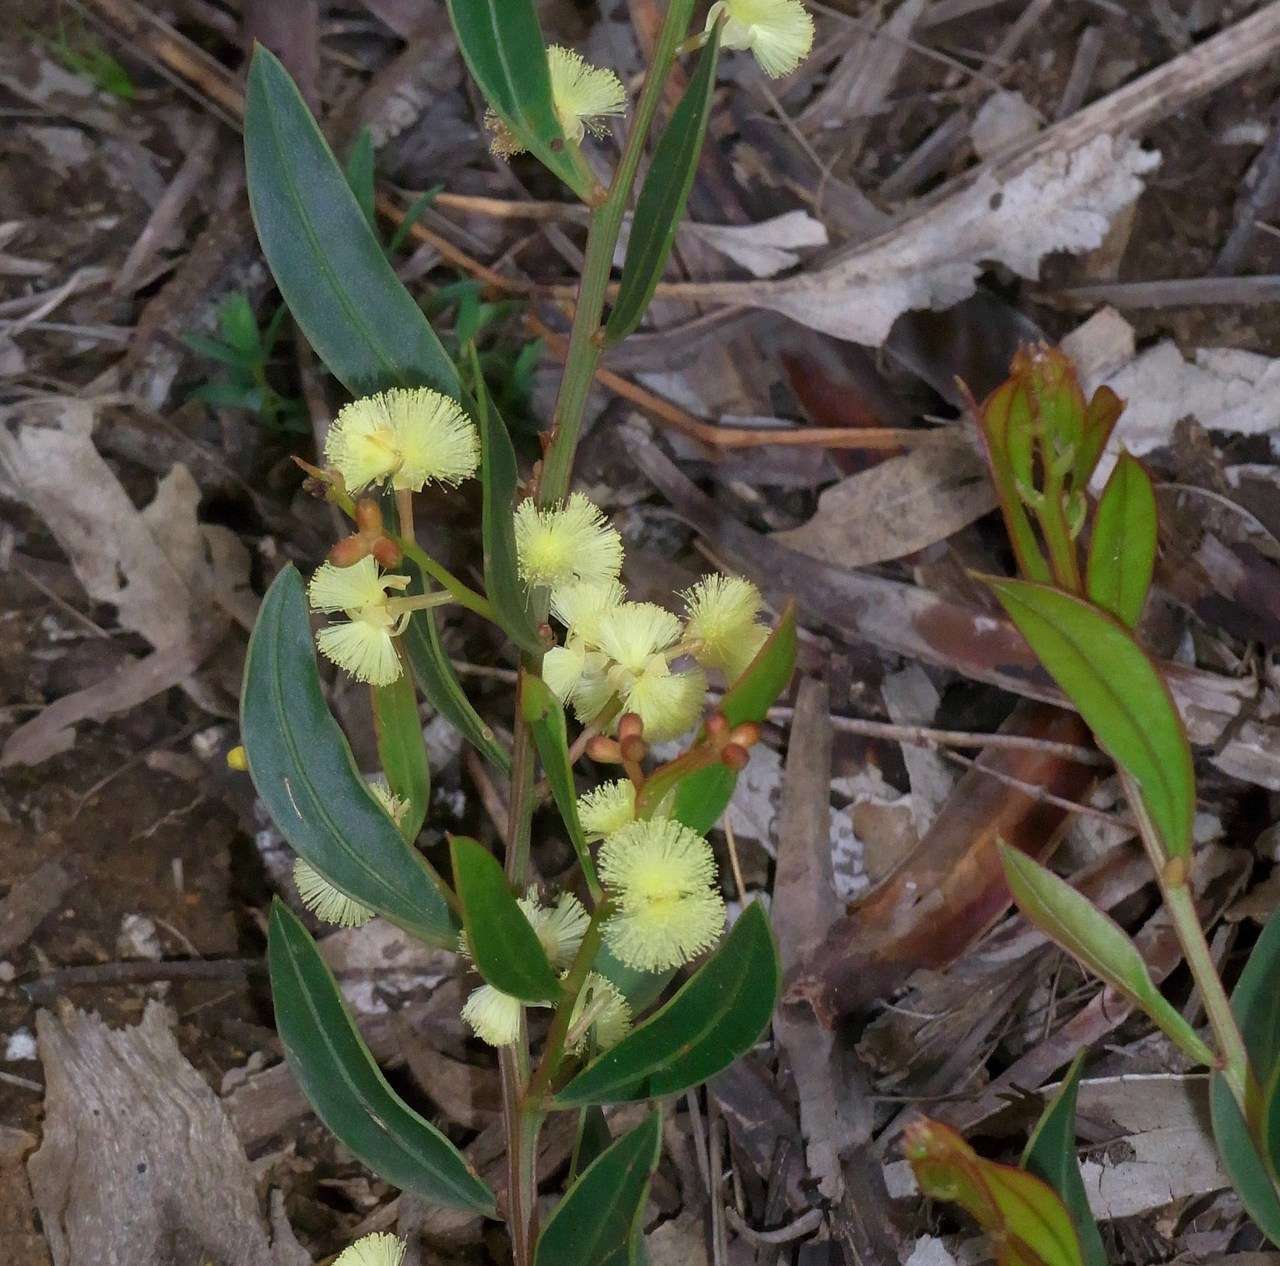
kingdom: Plantae
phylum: Tracheophyta
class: Magnoliopsida
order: Fabales
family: Fabaceae
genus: Acacia
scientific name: Acacia myrtifolia
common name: Myrtle wattle
